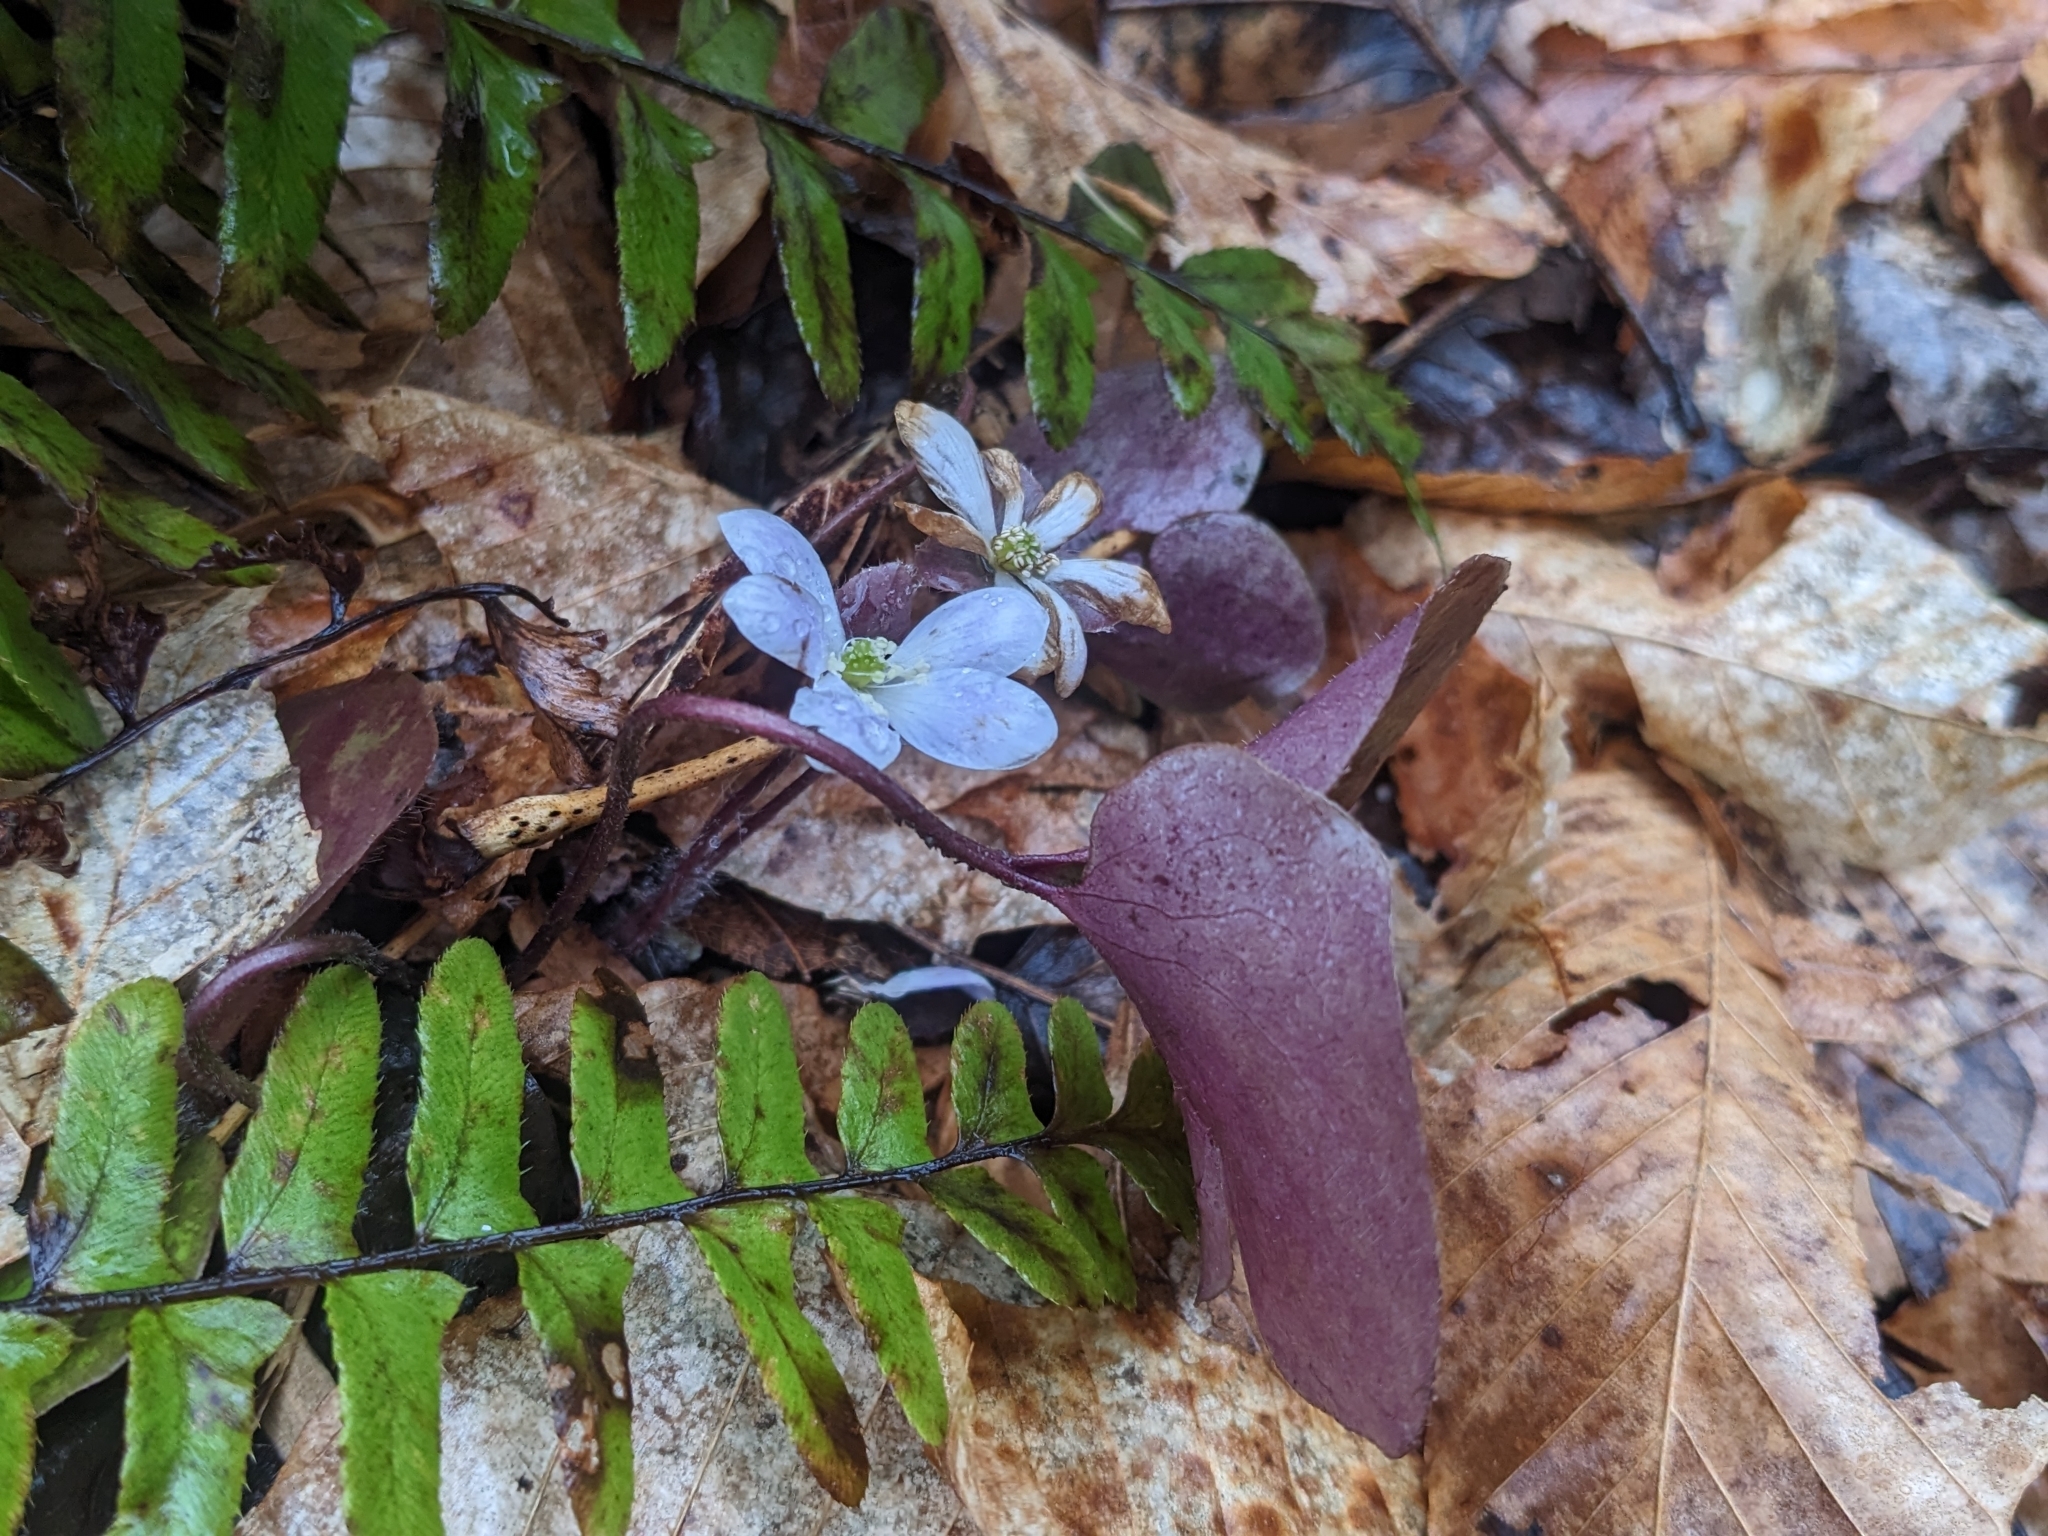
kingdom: Plantae
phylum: Tracheophyta
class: Magnoliopsida
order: Ranunculales
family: Ranunculaceae
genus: Hepatica
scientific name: Hepatica americana
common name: American hepatica
